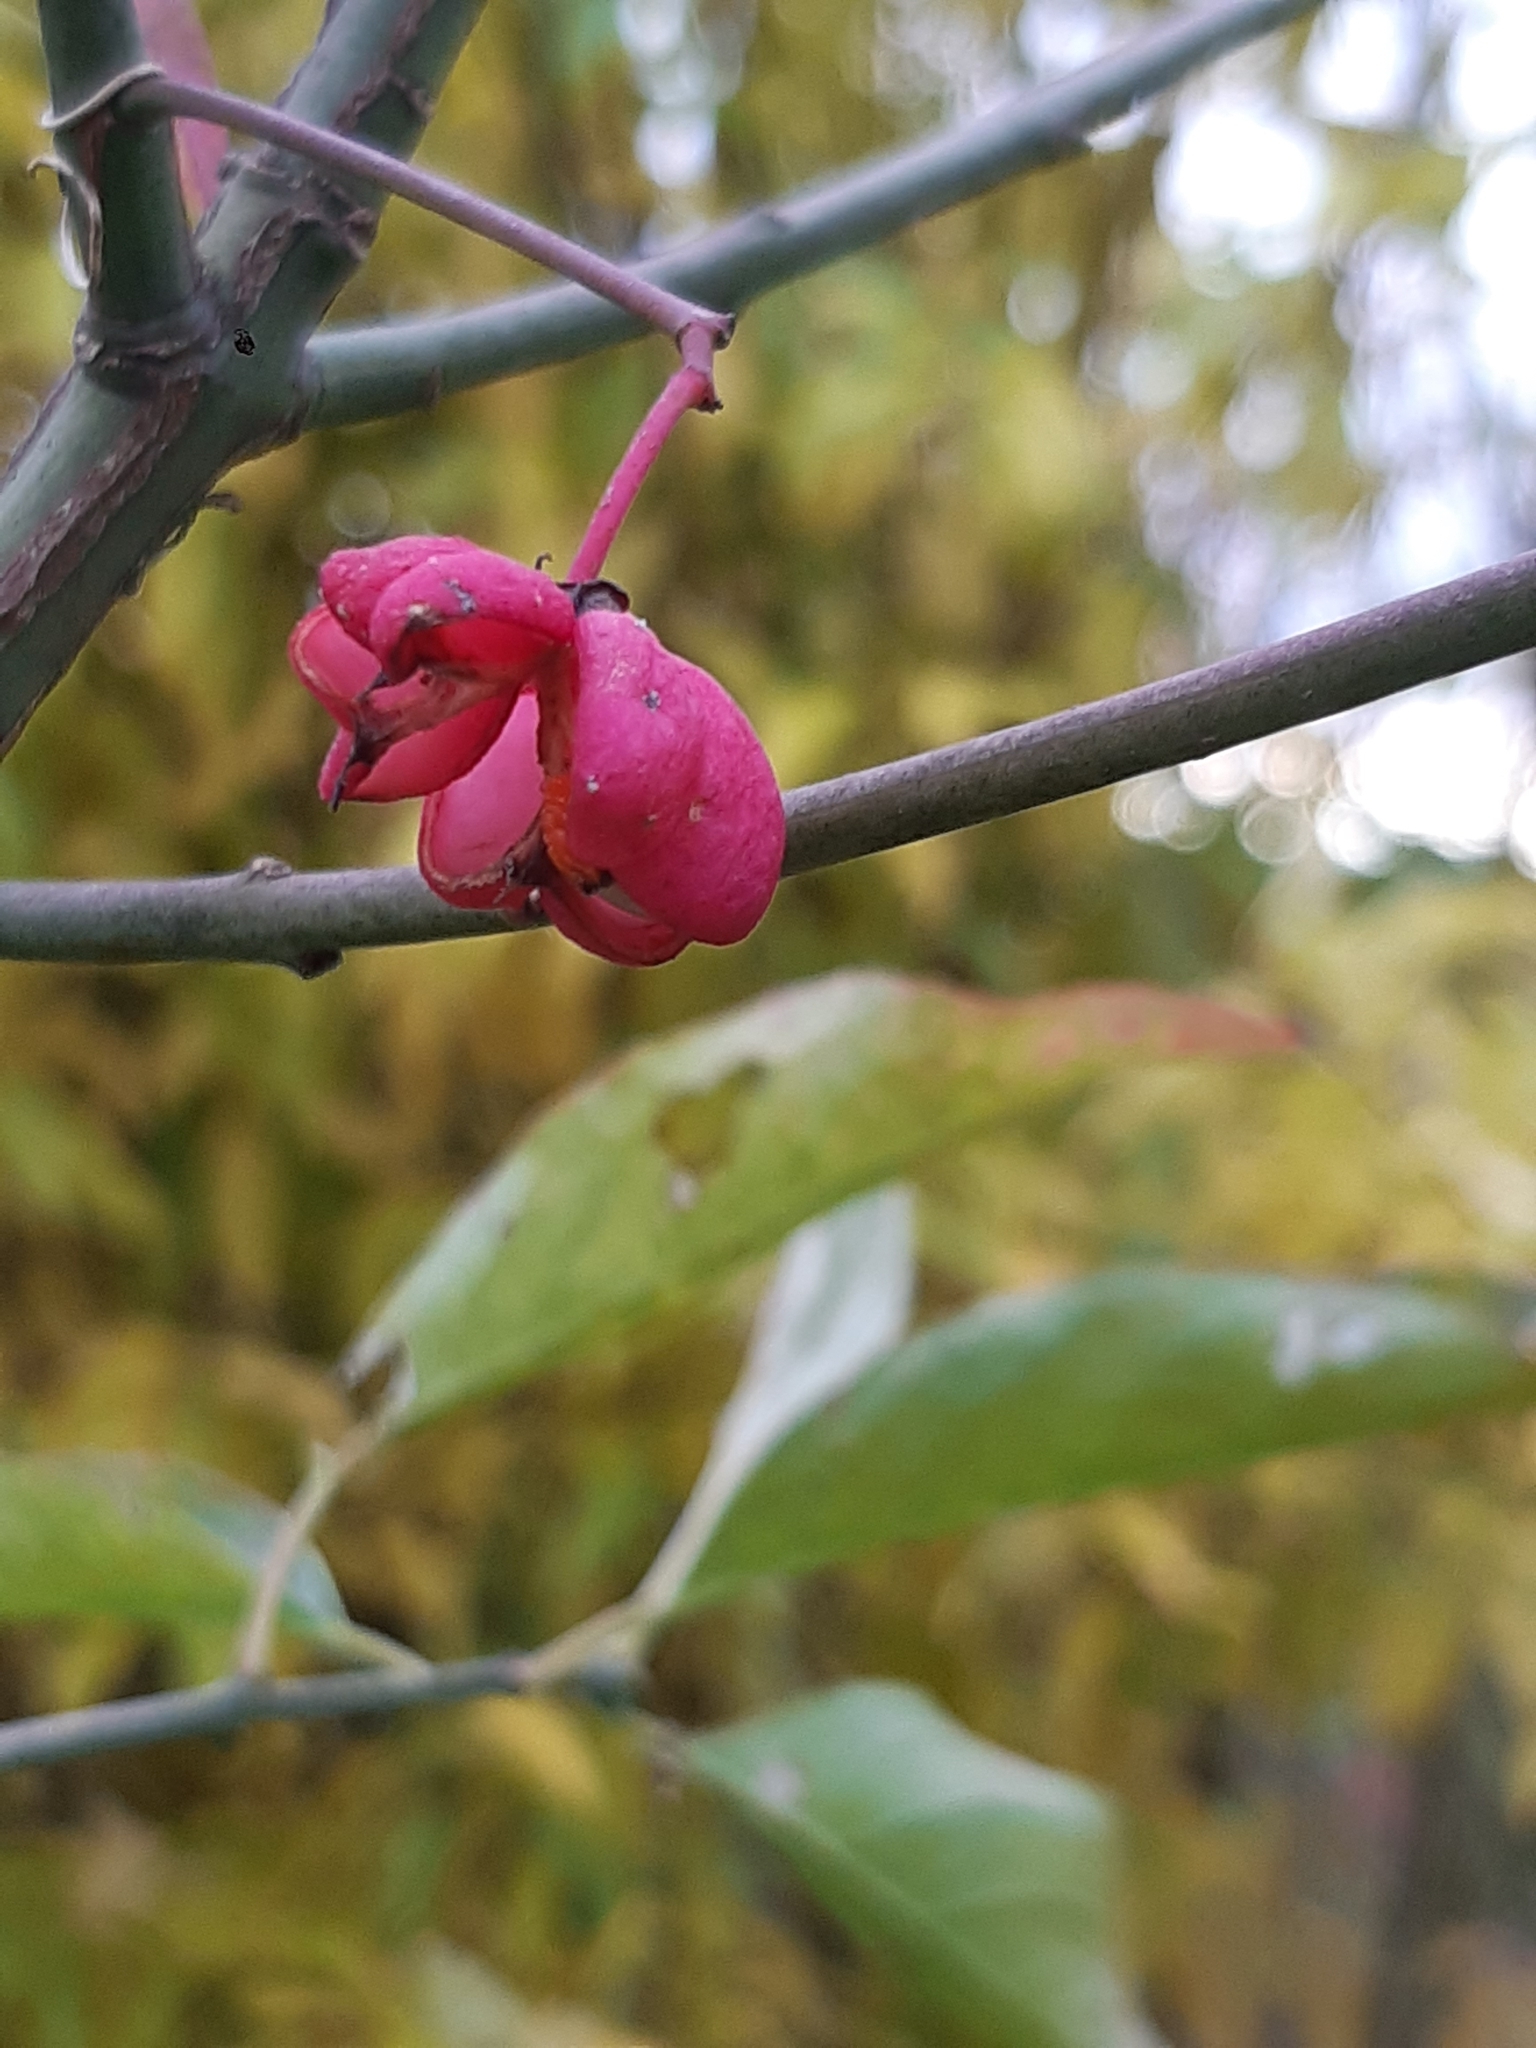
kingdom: Plantae
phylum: Tracheophyta
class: Magnoliopsida
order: Celastrales
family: Celastraceae
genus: Euonymus
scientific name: Euonymus europaeus
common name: Spindle
